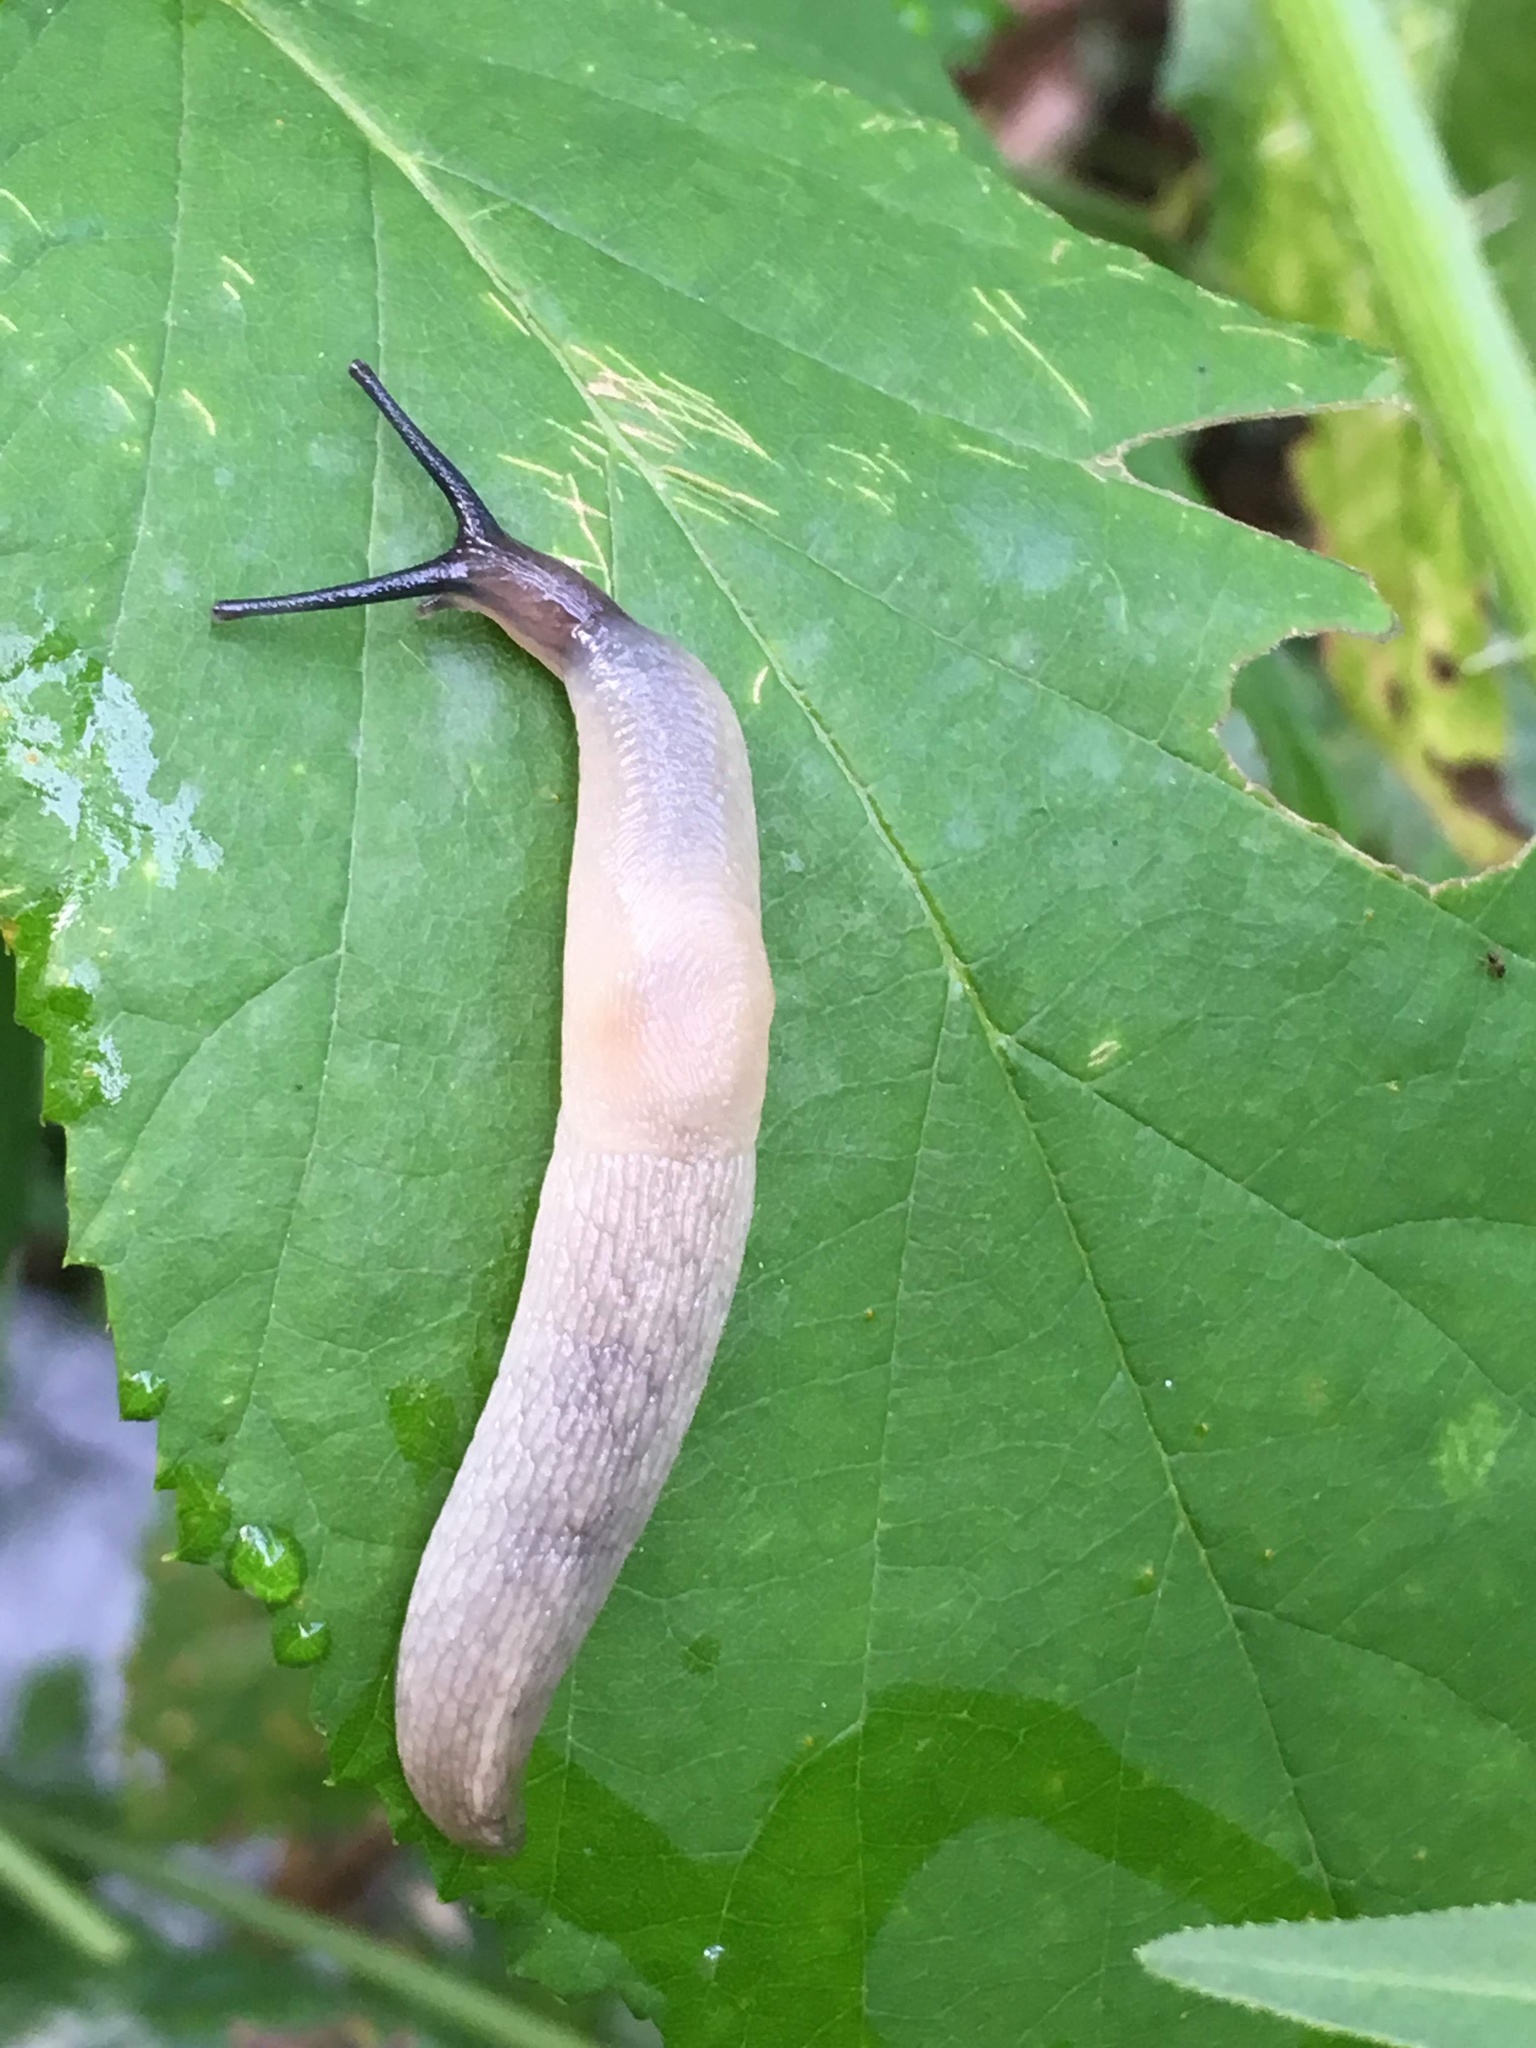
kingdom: Animalia
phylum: Mollusca
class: Gastropoda
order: Stylommatophora
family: Agriolimacidae
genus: Krynickillus
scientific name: Krynickillus melanocephalus
